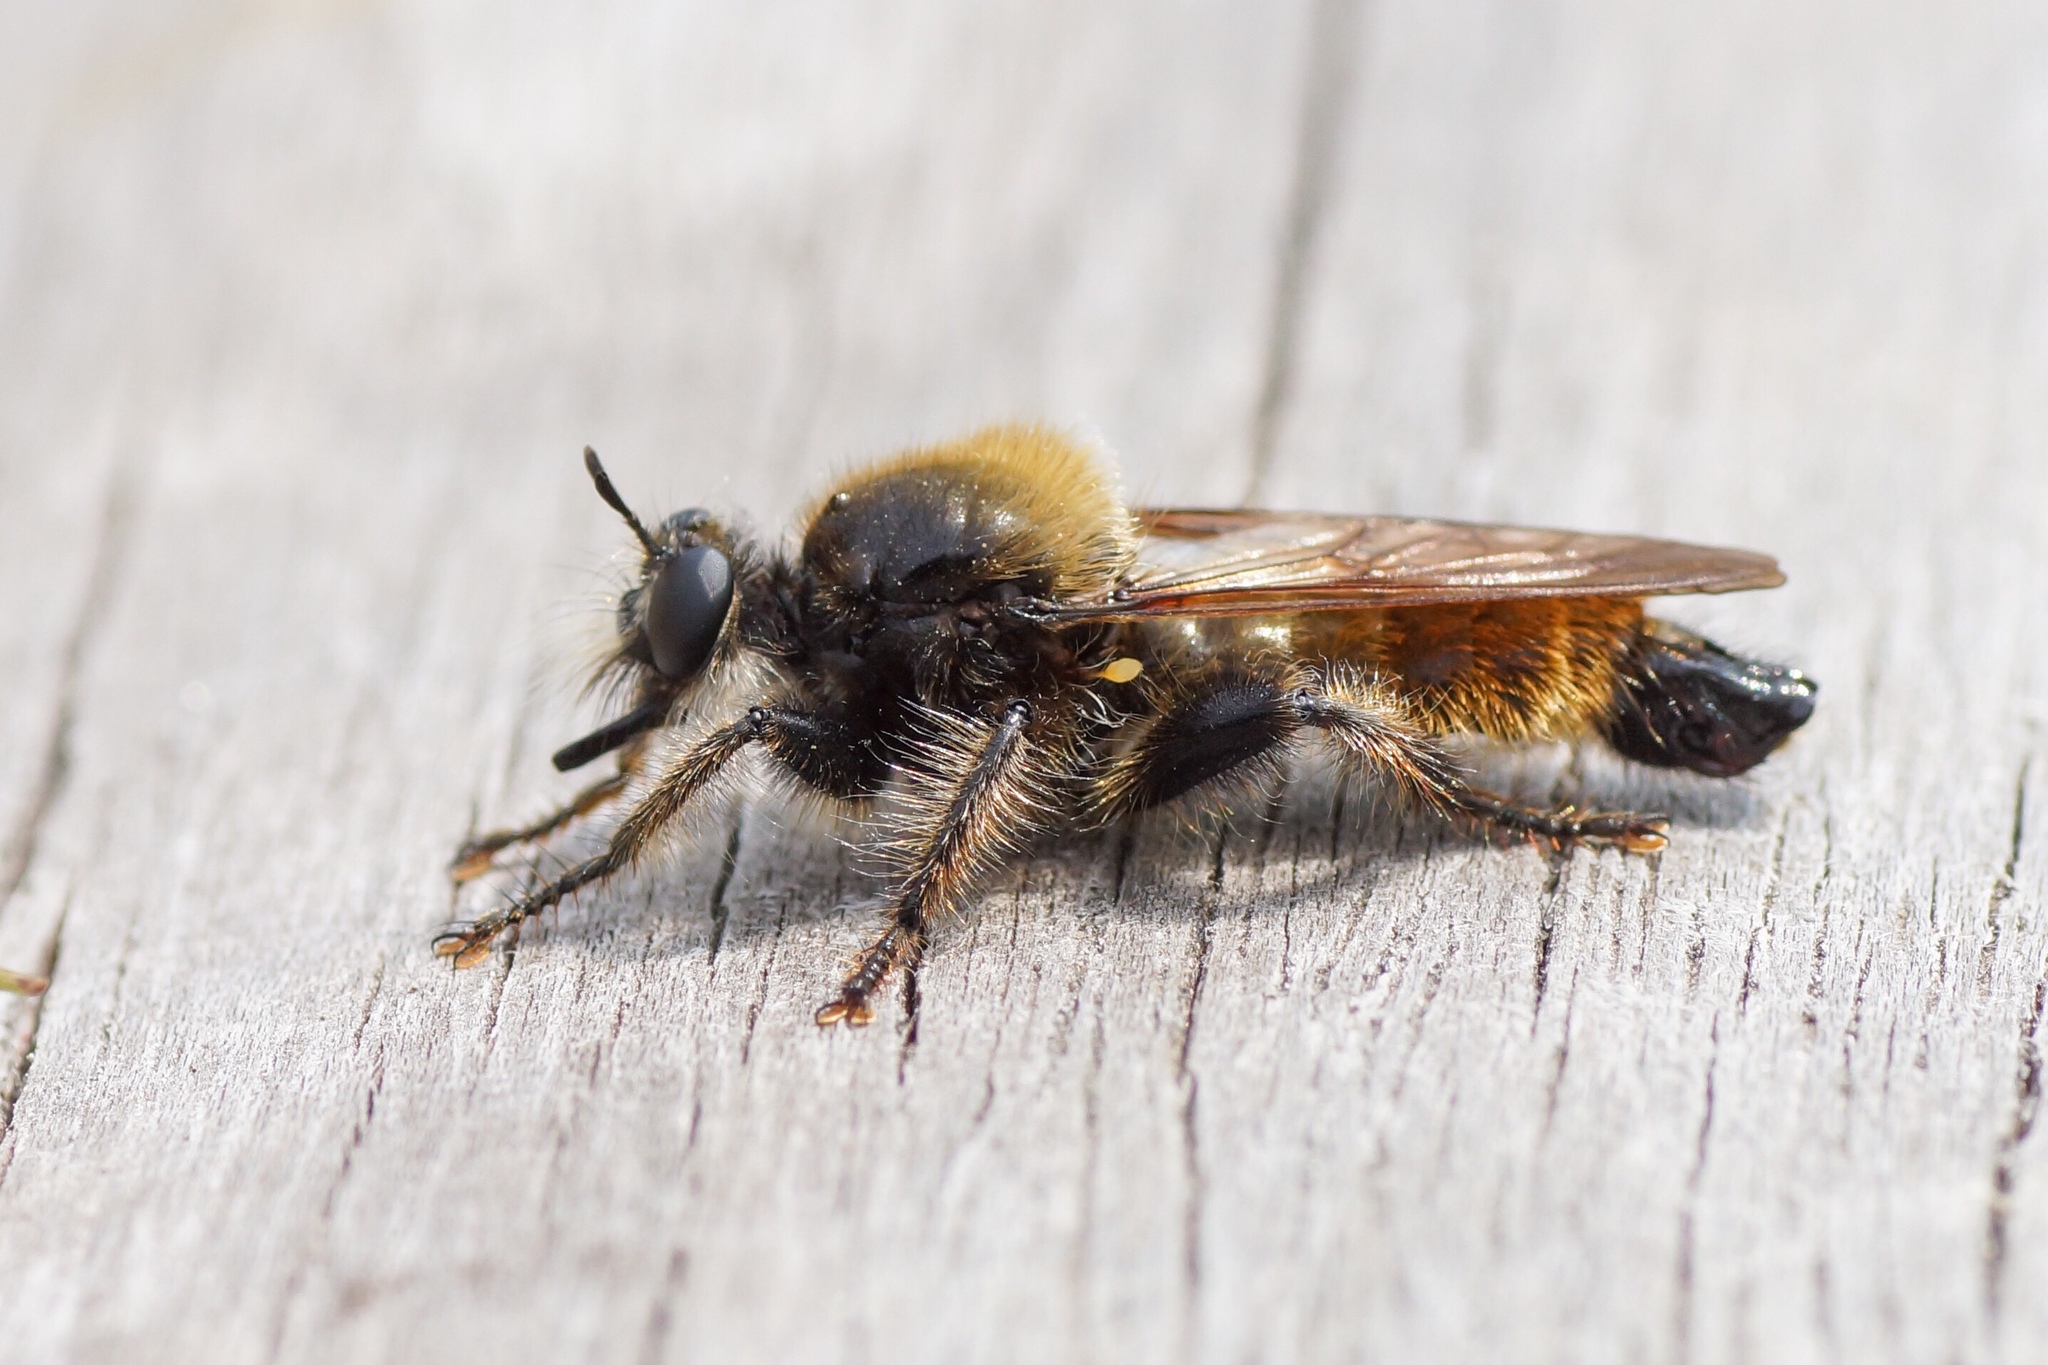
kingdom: Animalia
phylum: Arthropoda
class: Insecta
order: Diptera
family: Asilidae
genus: Laphria
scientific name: Laphria flava
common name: Bumblebee robberfly
